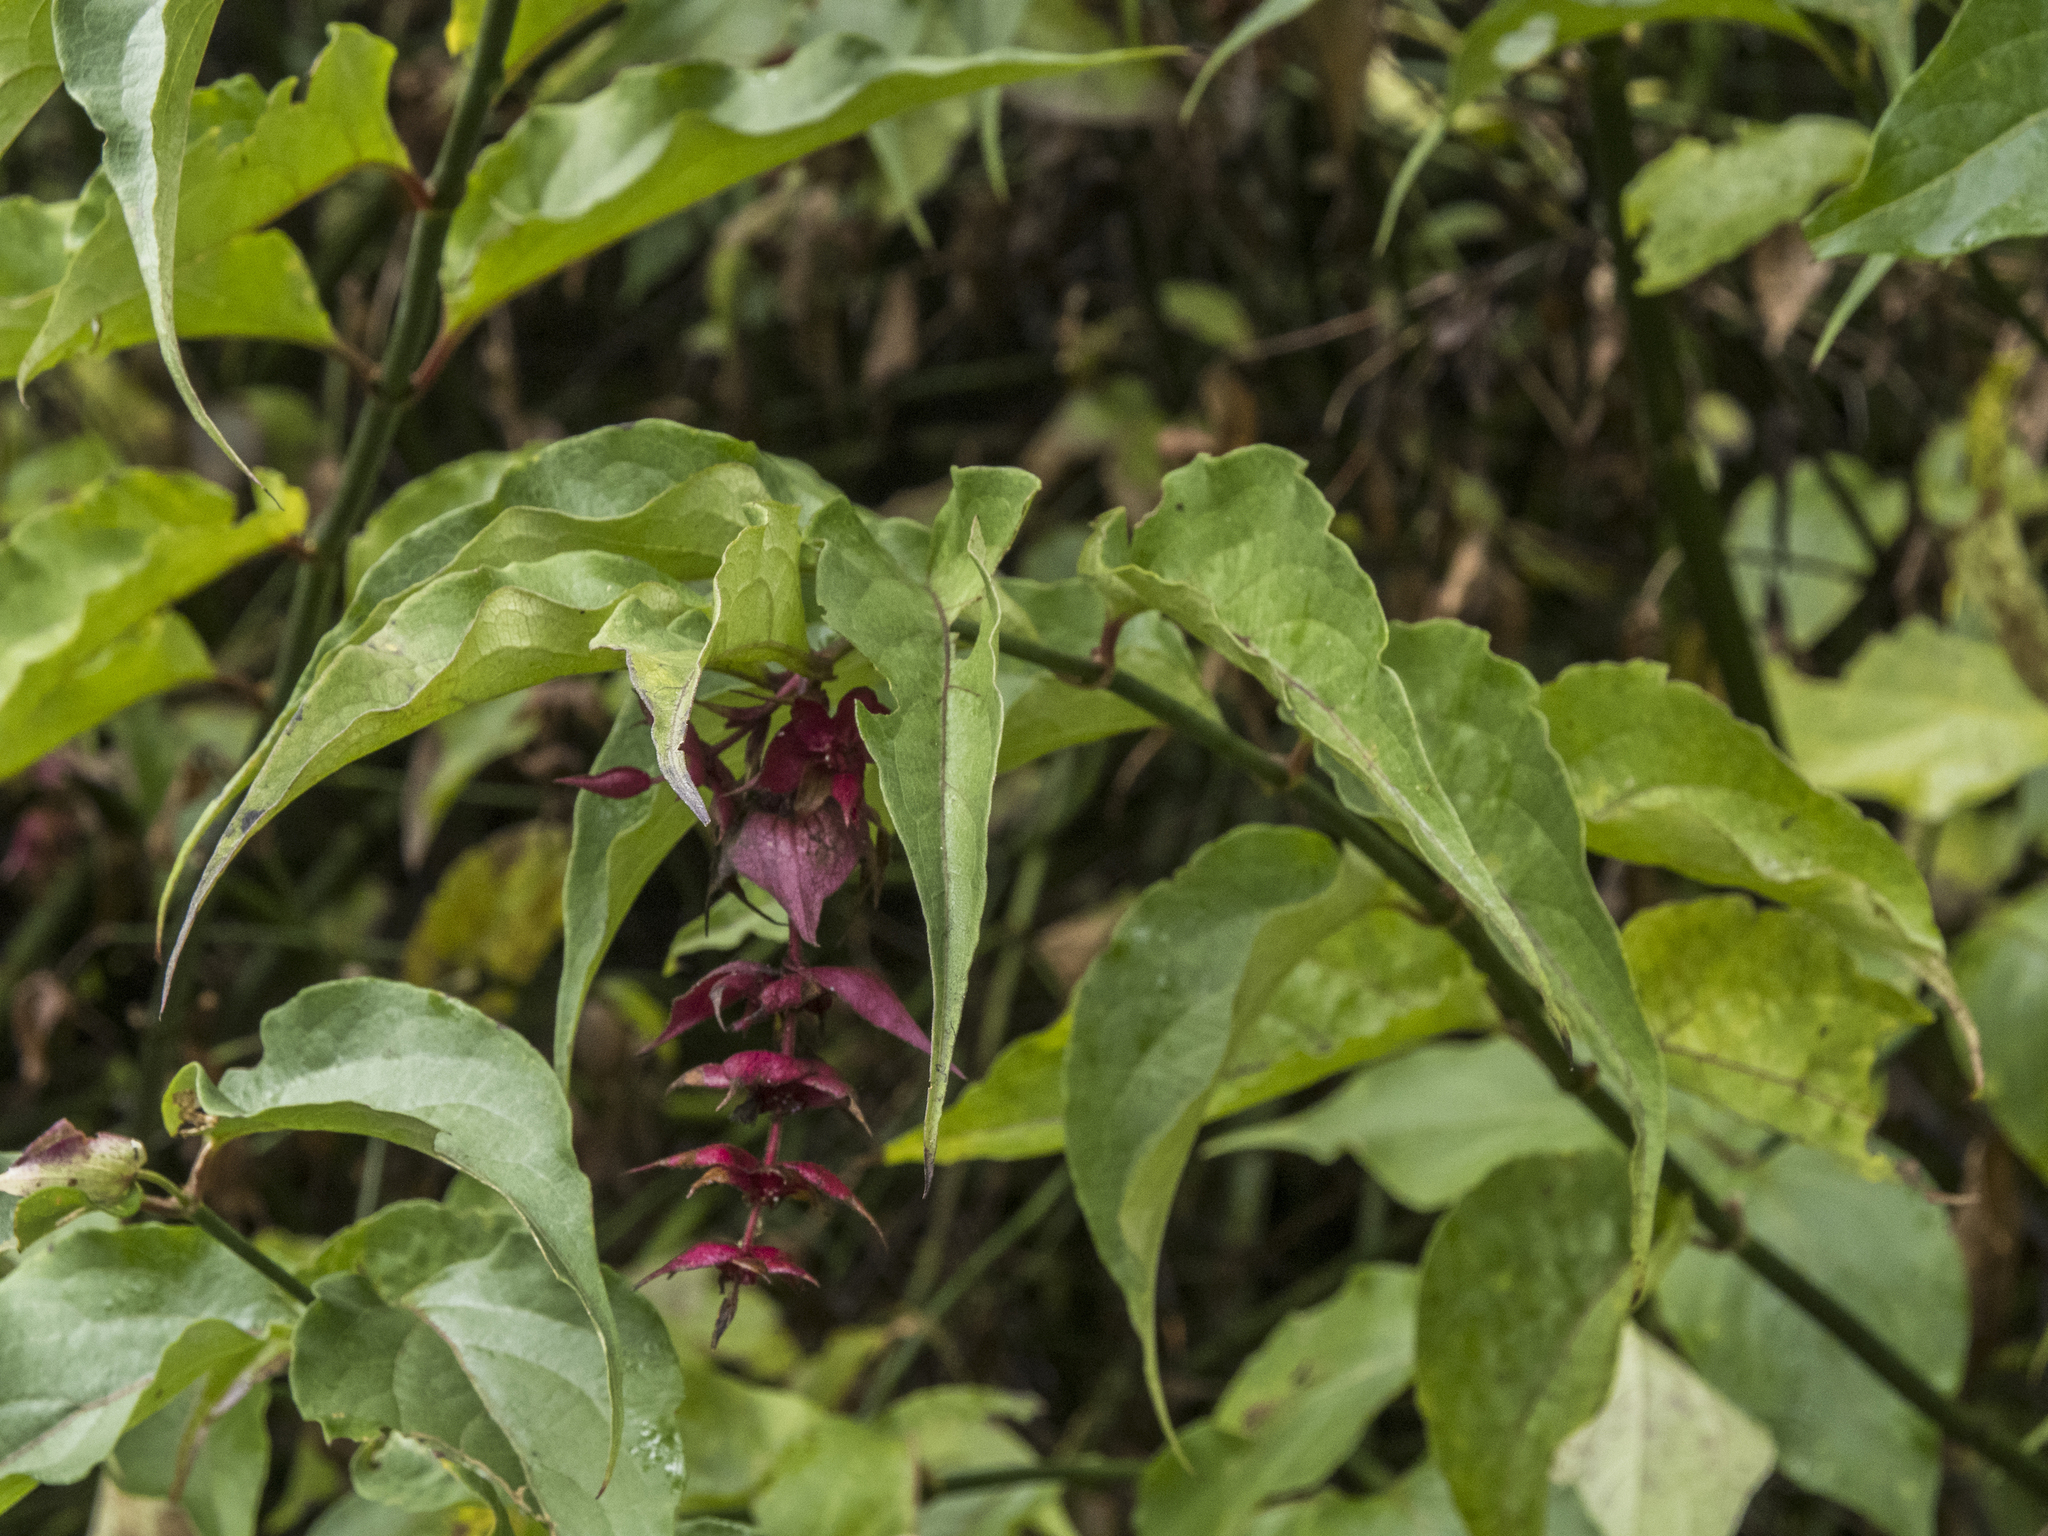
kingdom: Plantae
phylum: Tracheophyta
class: Magnoliopsida
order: Dipsacales
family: Caprifoliaceae
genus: Leycesteria
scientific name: Leycesteria formosa
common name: Himalayan honeysuckle
